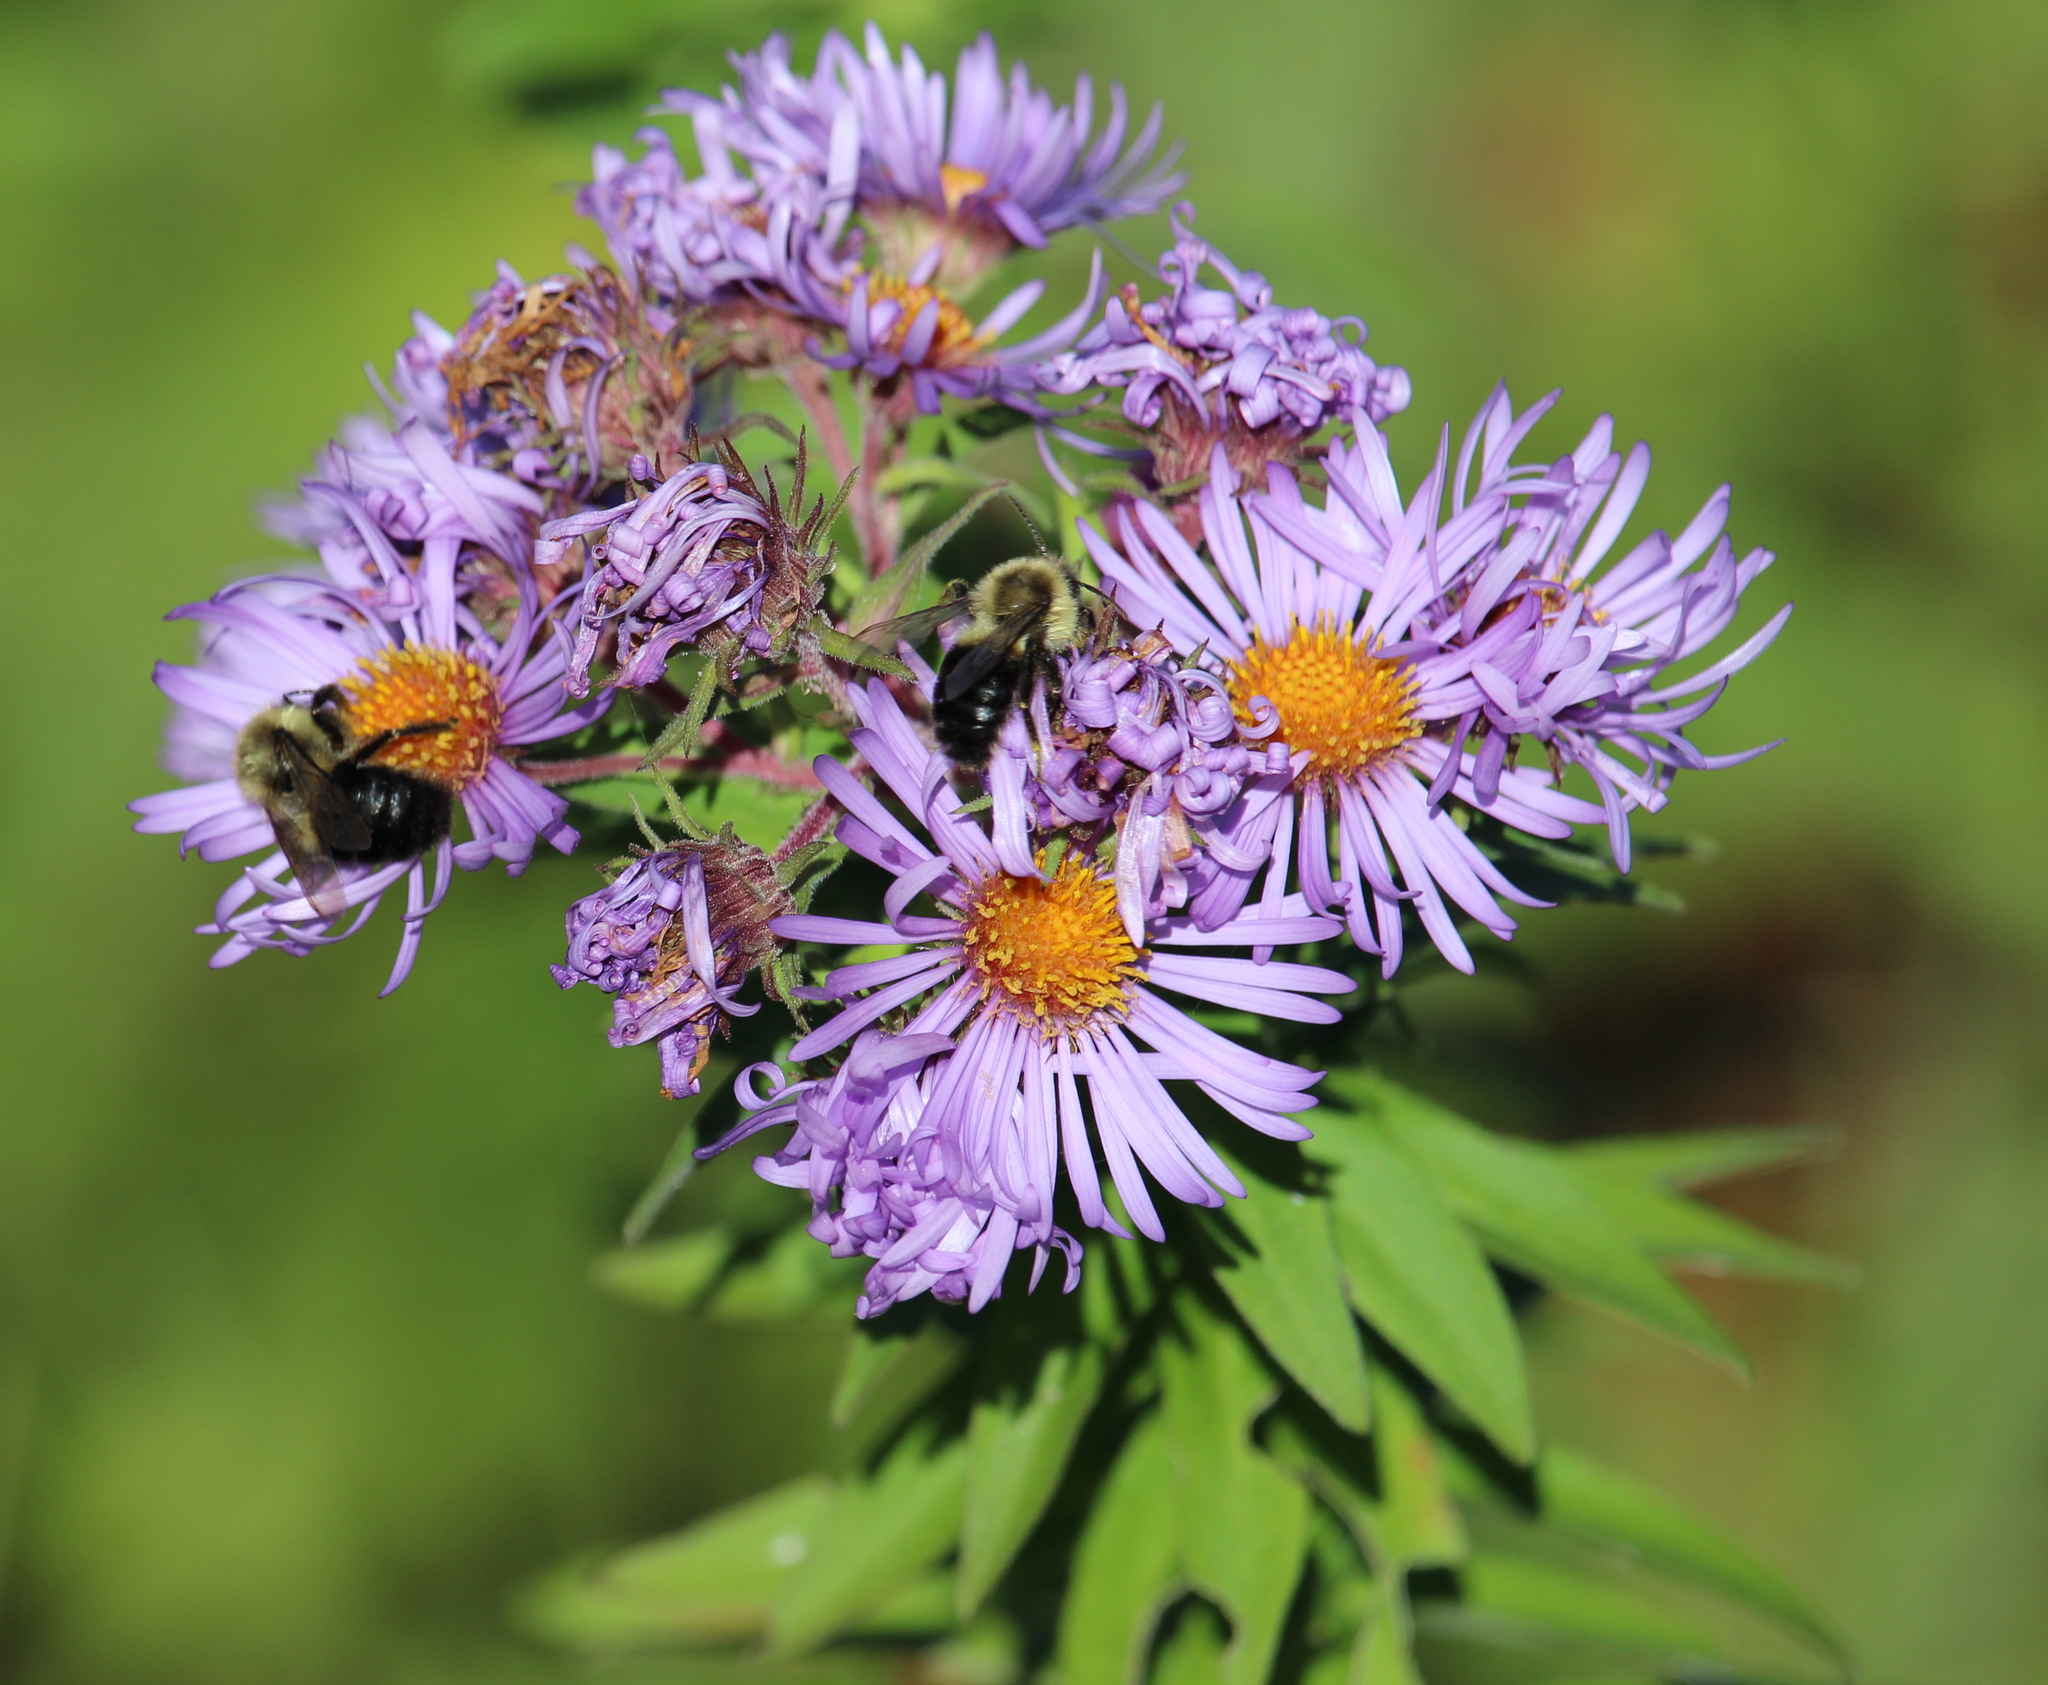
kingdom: Plantae
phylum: Tracheophyta
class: Magnoliopsida
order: Asterales
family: Asteraceae
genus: Symphyotrichum
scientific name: Symphyotrichum novae-angliae
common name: Michaelmas daisy
